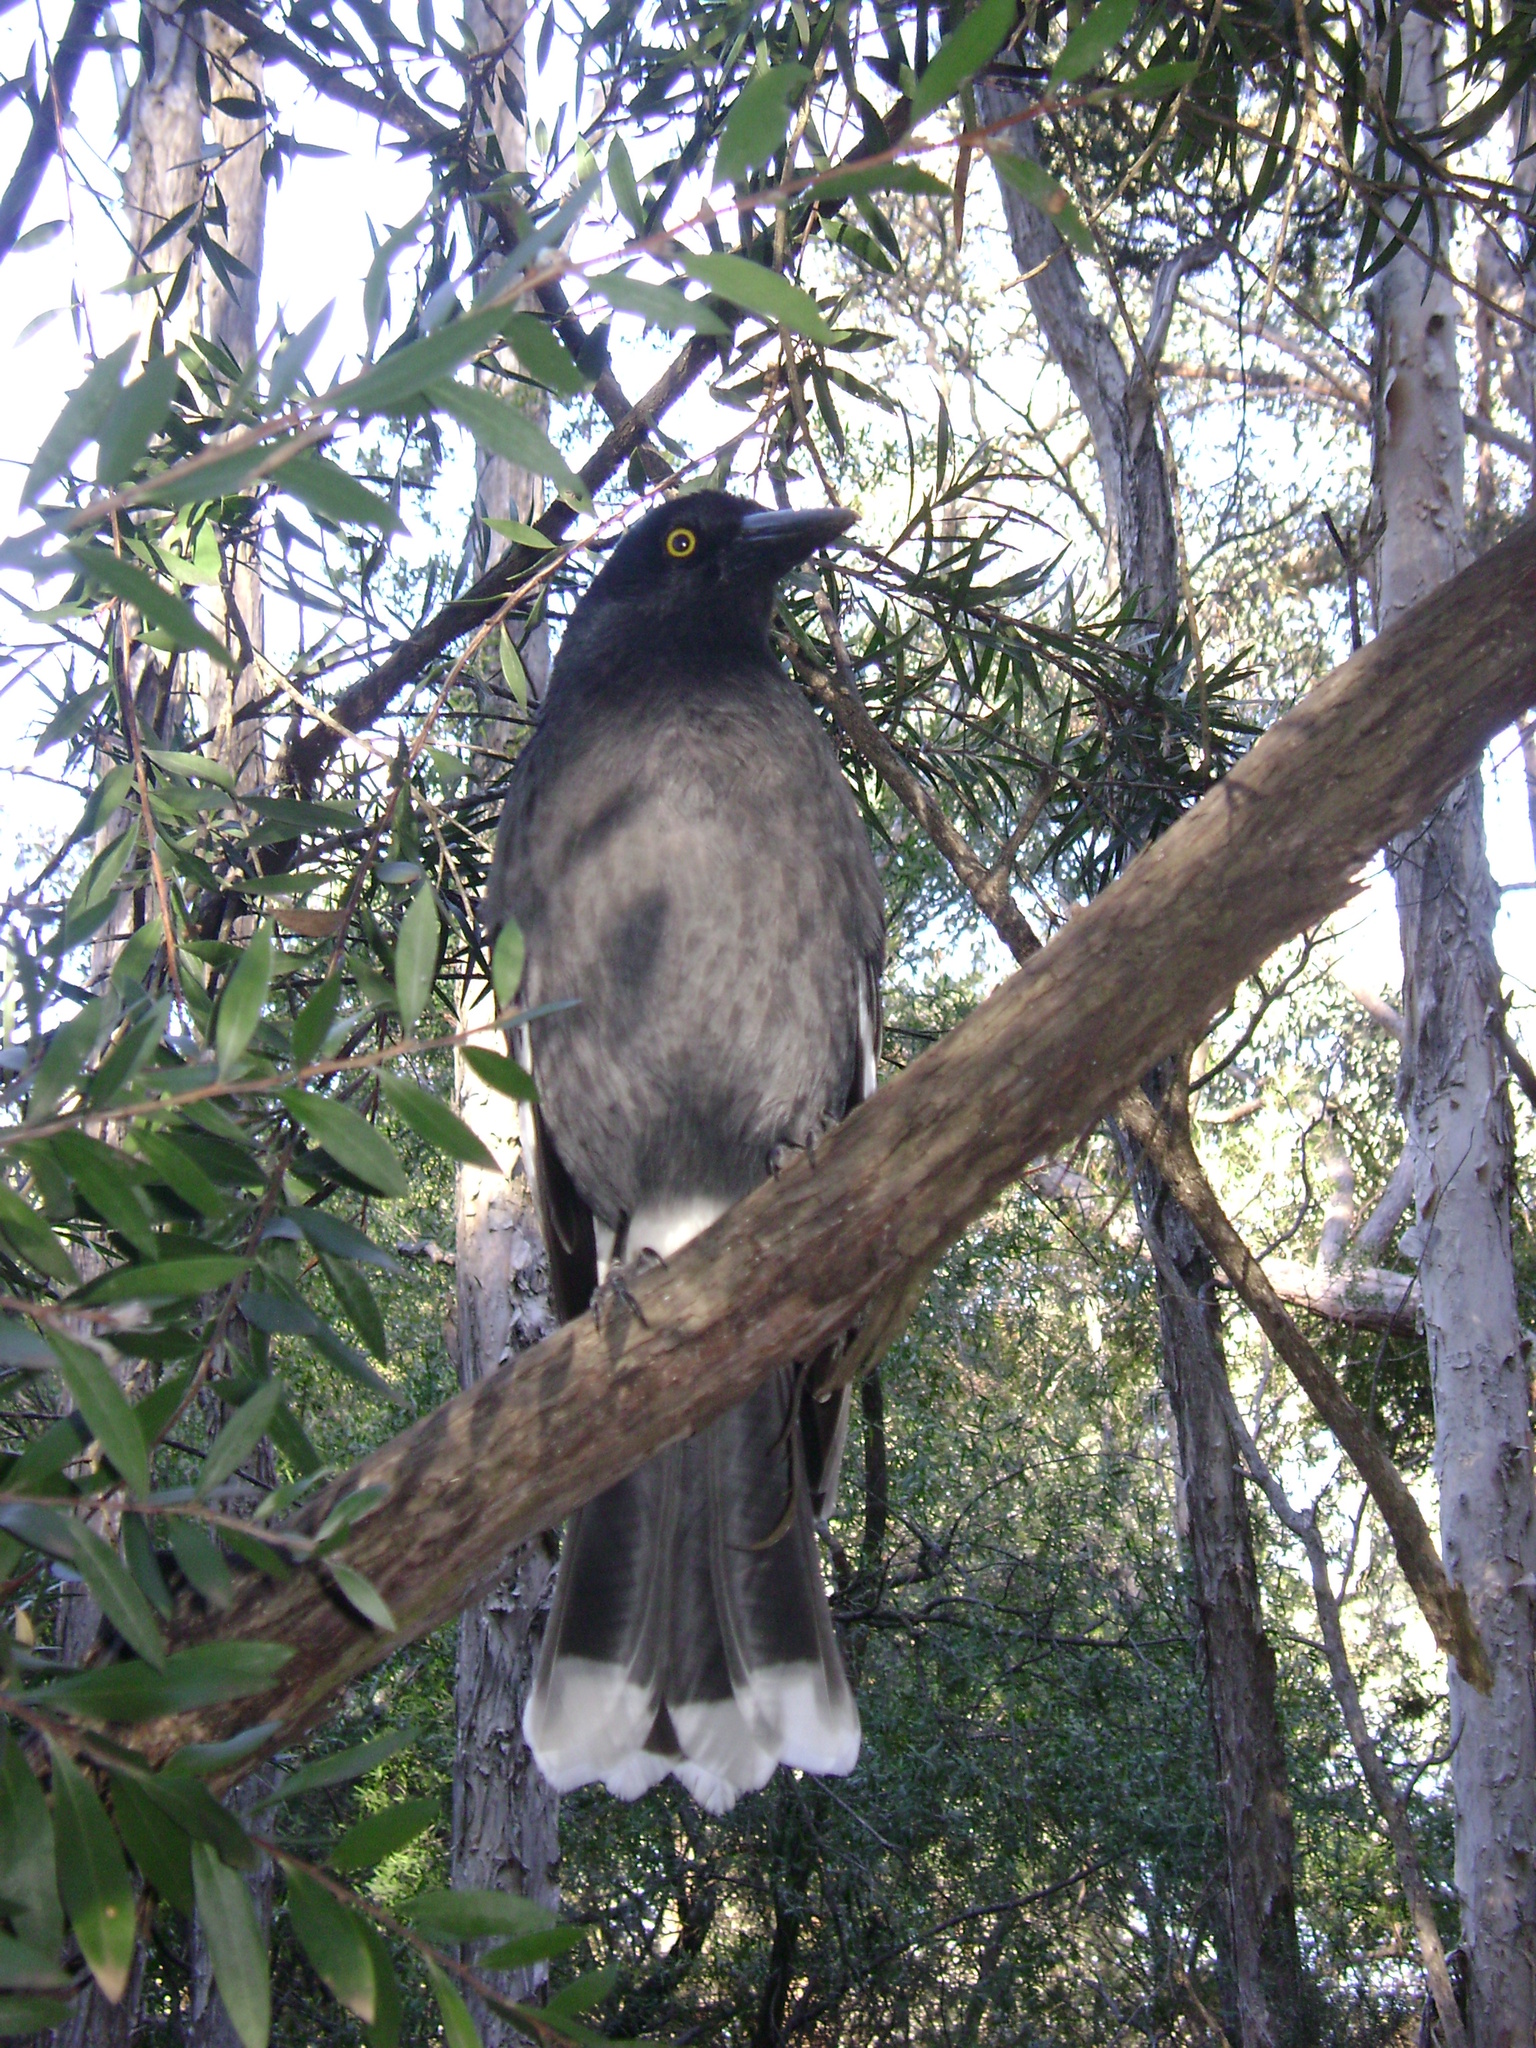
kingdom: Animalia
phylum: Chordata
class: Aves
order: Passeriformes
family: Cracticidae
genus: Strepera
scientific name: Strepera graculina
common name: Pied currawong
